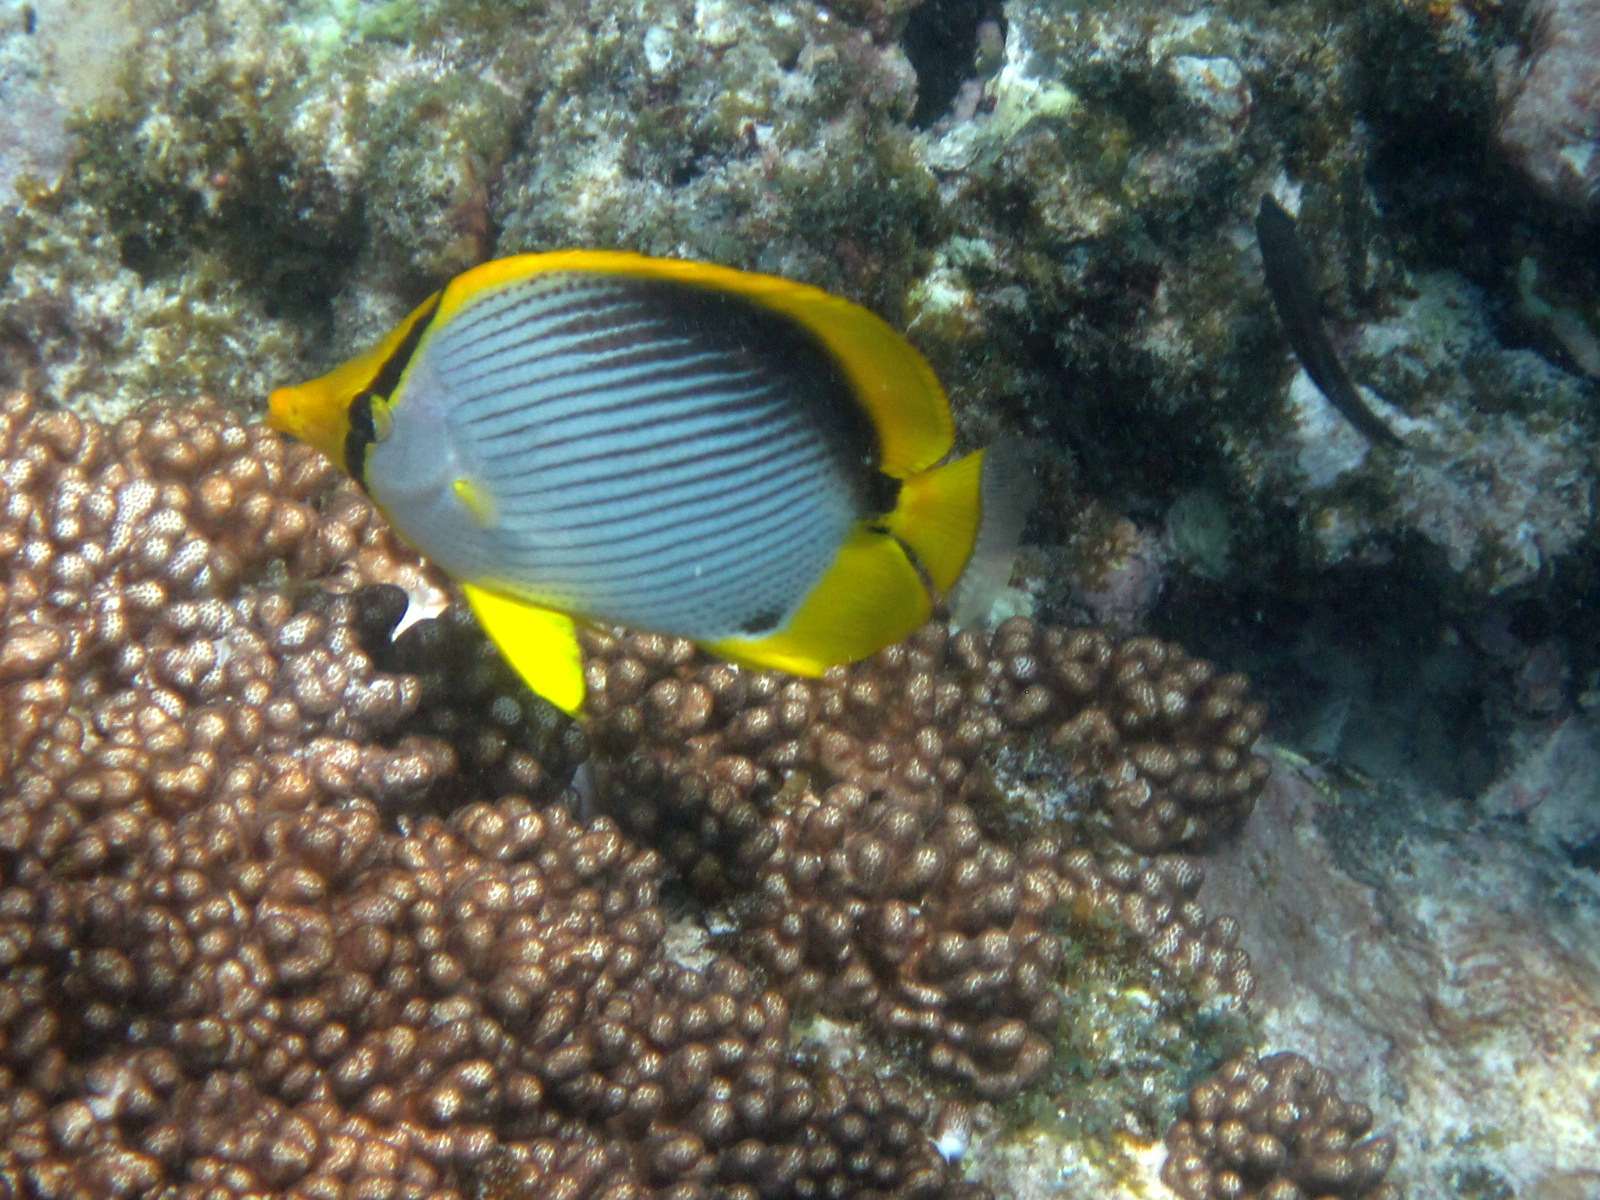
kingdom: Animalia
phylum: Chordata
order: Perciformes
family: Chaetodontidae
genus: Chaetodon
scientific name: Chaetodon melannotus
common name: Blackback butterflyfish
